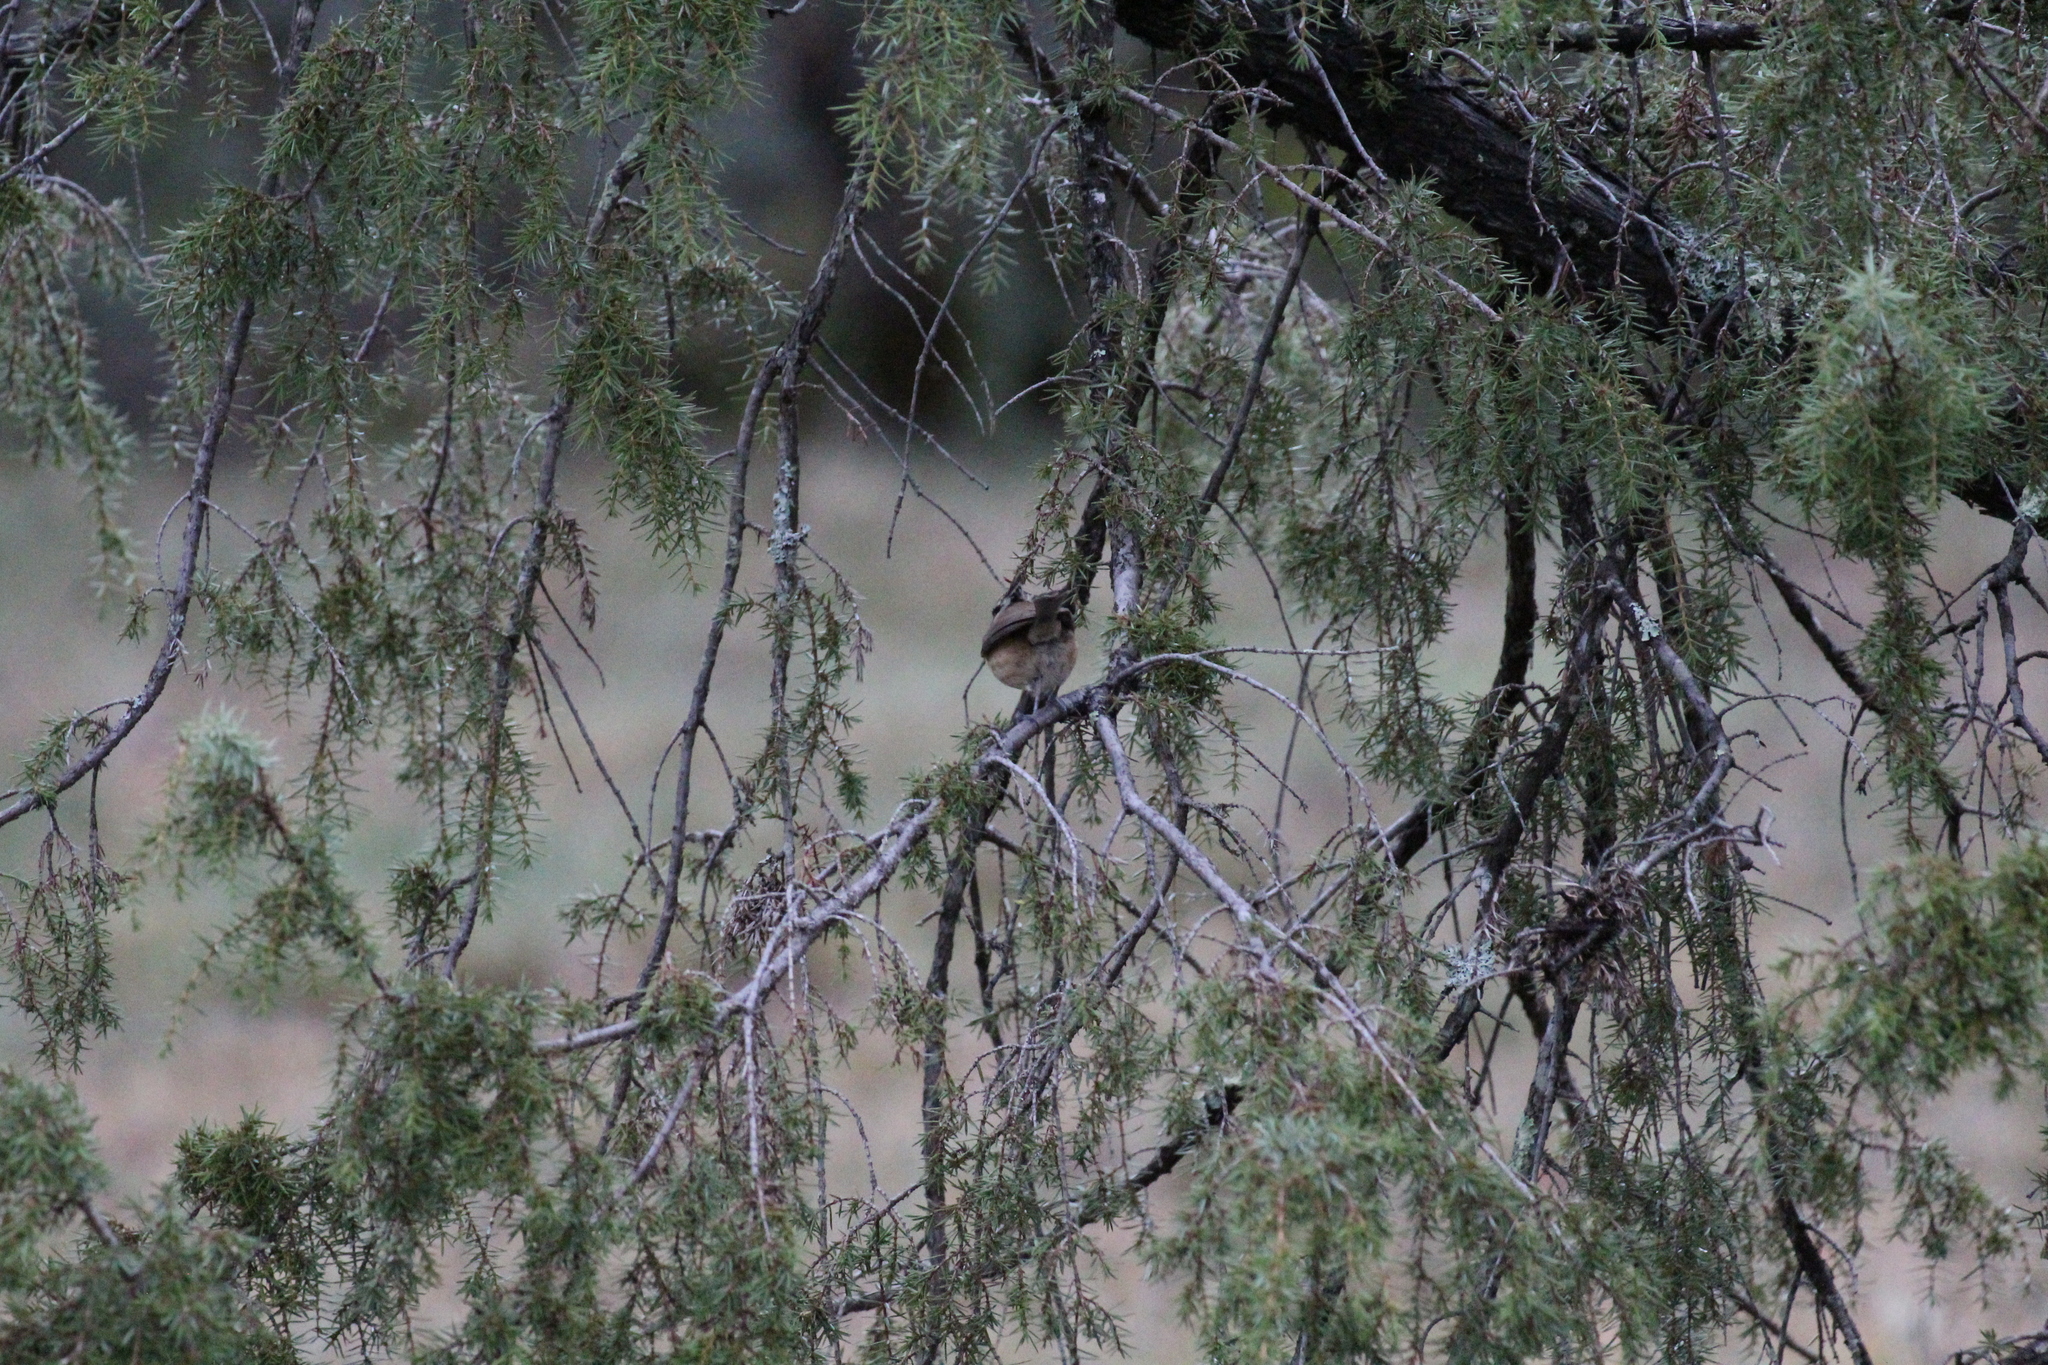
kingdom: Animalia
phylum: Chordata
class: Aves
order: Passeriformes
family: Paridae
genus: Lophophanes
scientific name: Lophophanes cristatus
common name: European crested tit
